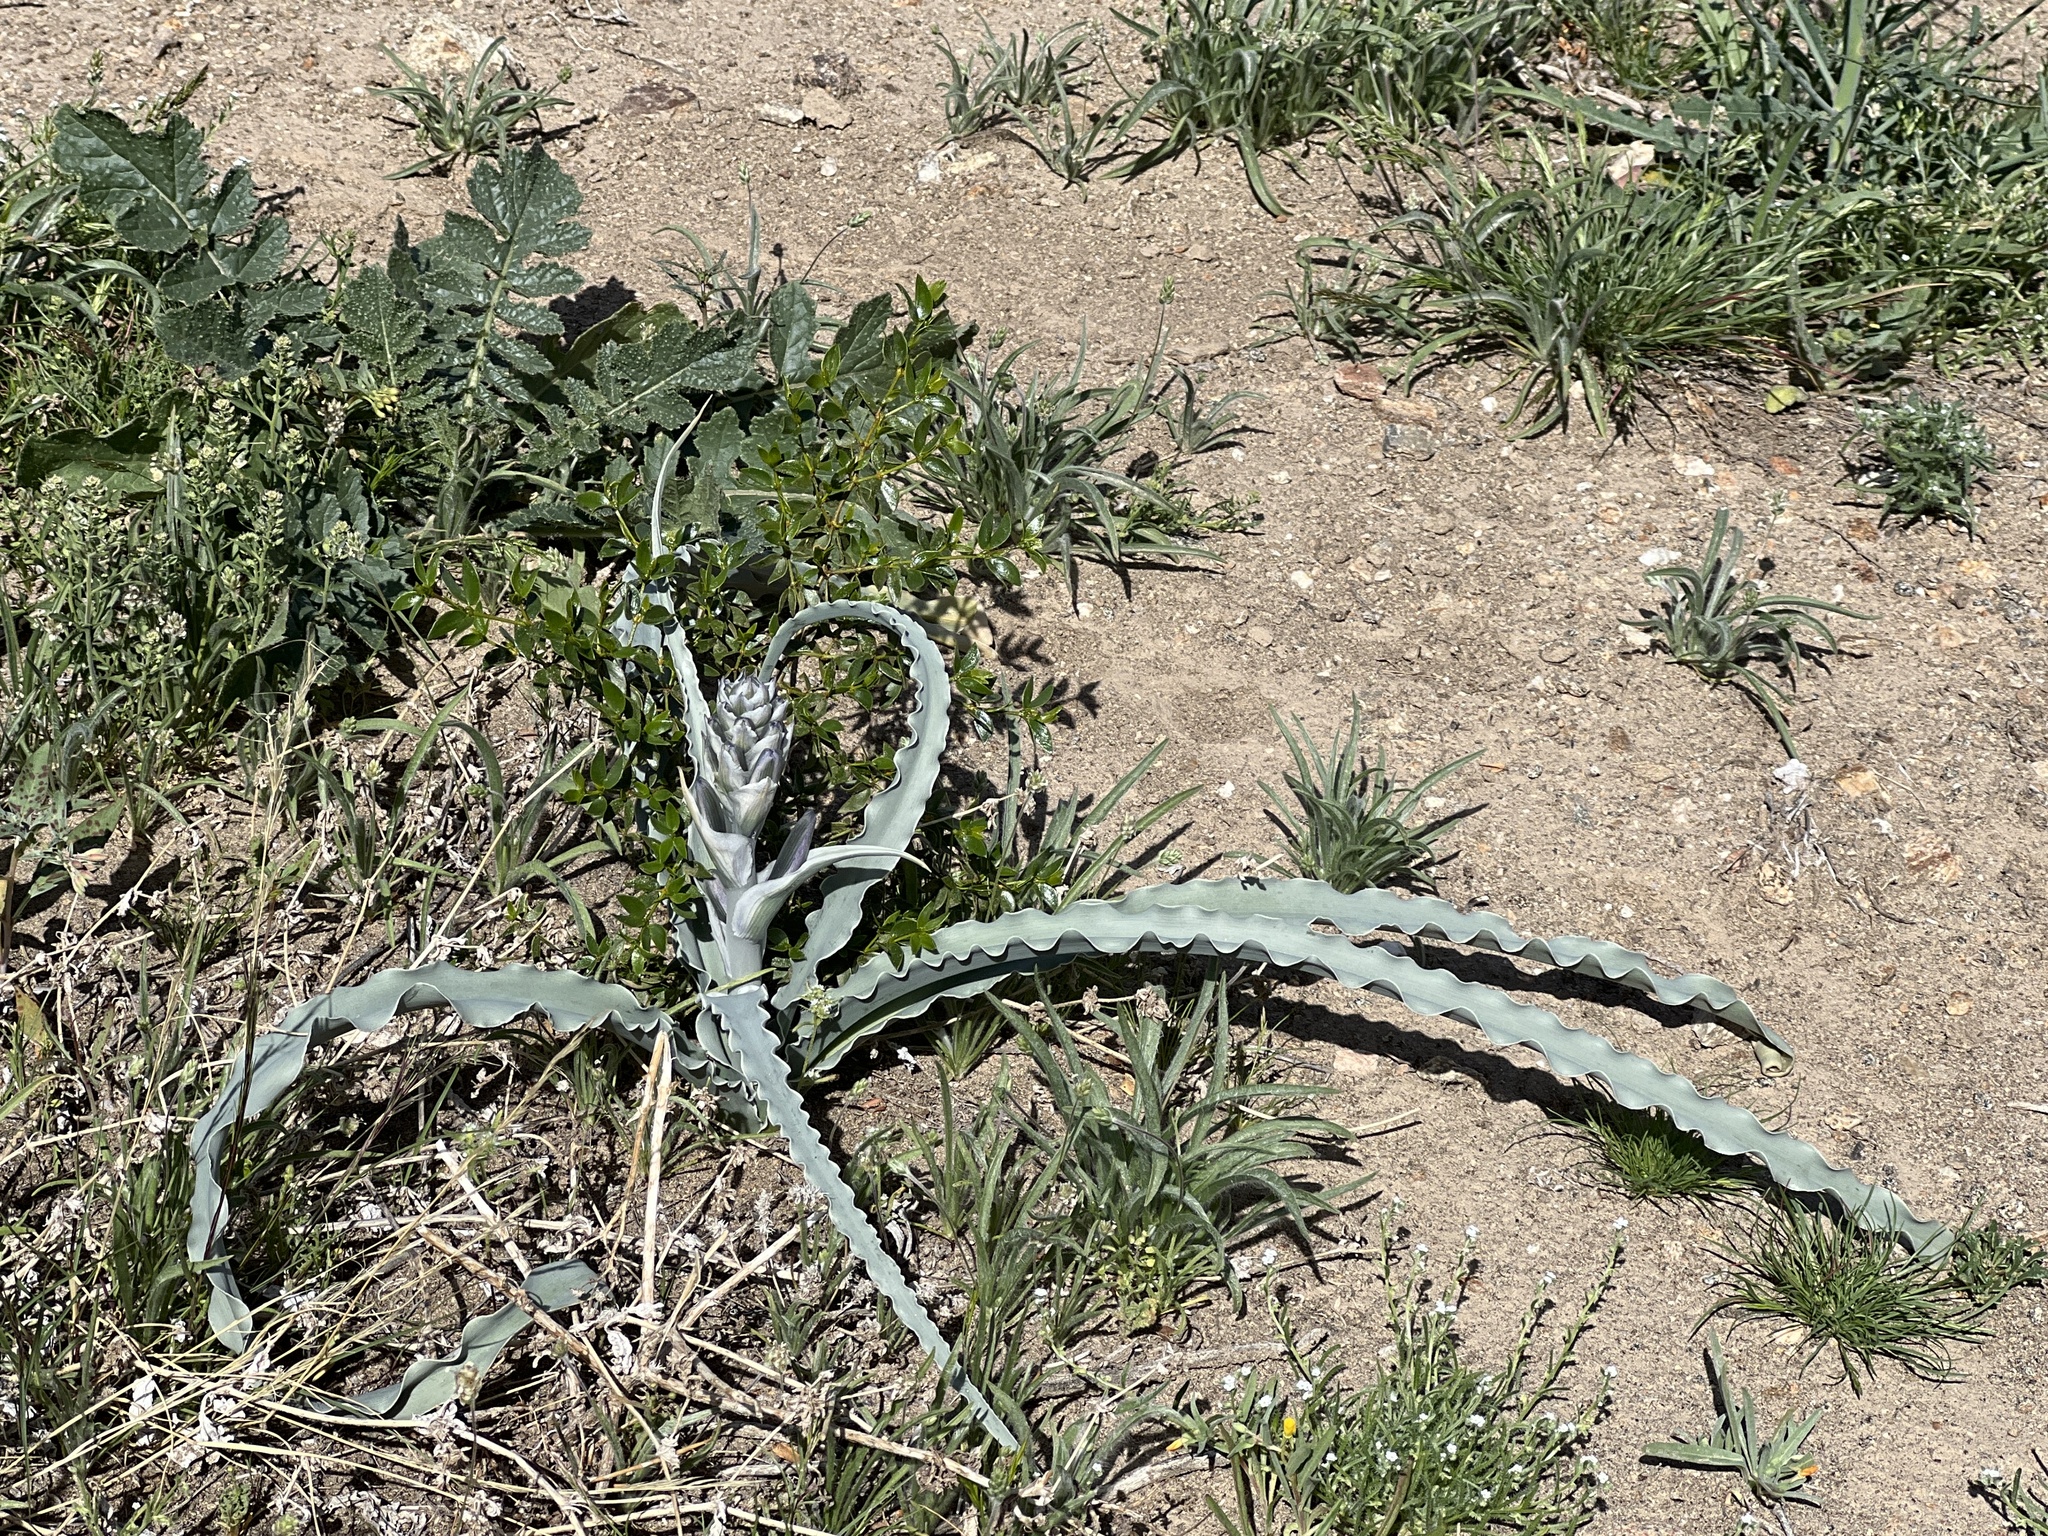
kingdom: Plantae
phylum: Tracheophyta
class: Liliopsida
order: Asparagales
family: Asparagaceae
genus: Hesperocallis
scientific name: Hesperocallis undulata
